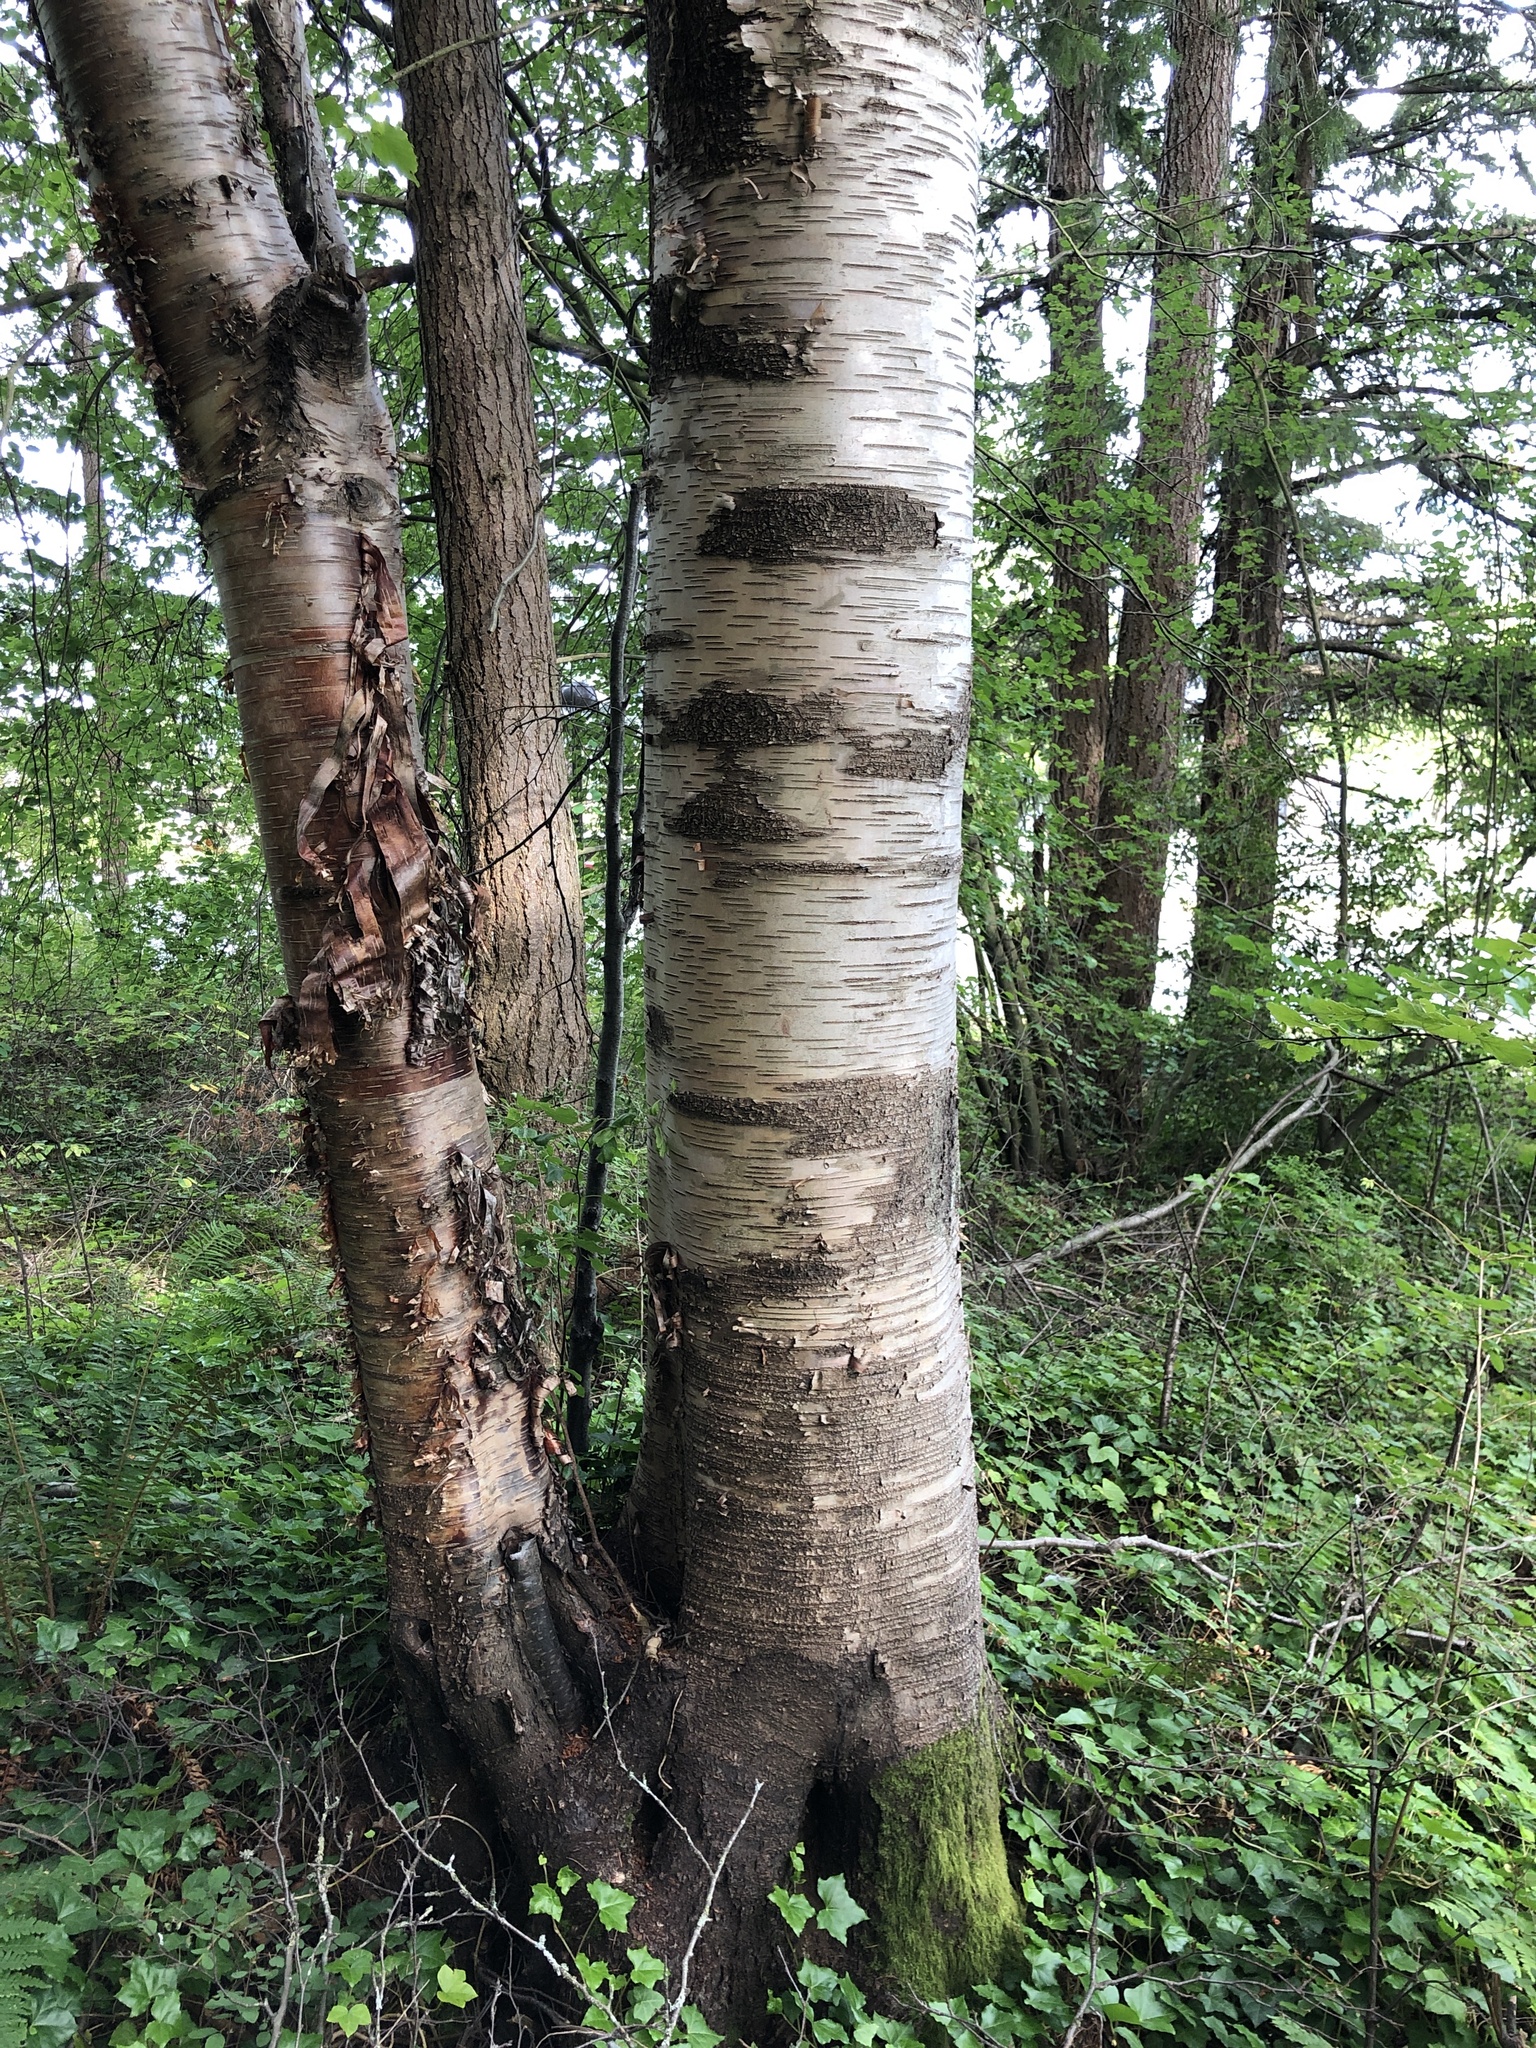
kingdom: Plantae
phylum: Tracheophyta
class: Magnoliopsida
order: Fagales
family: Betulaceae
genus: Betula
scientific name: Betula papyrifera
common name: Paper birch
